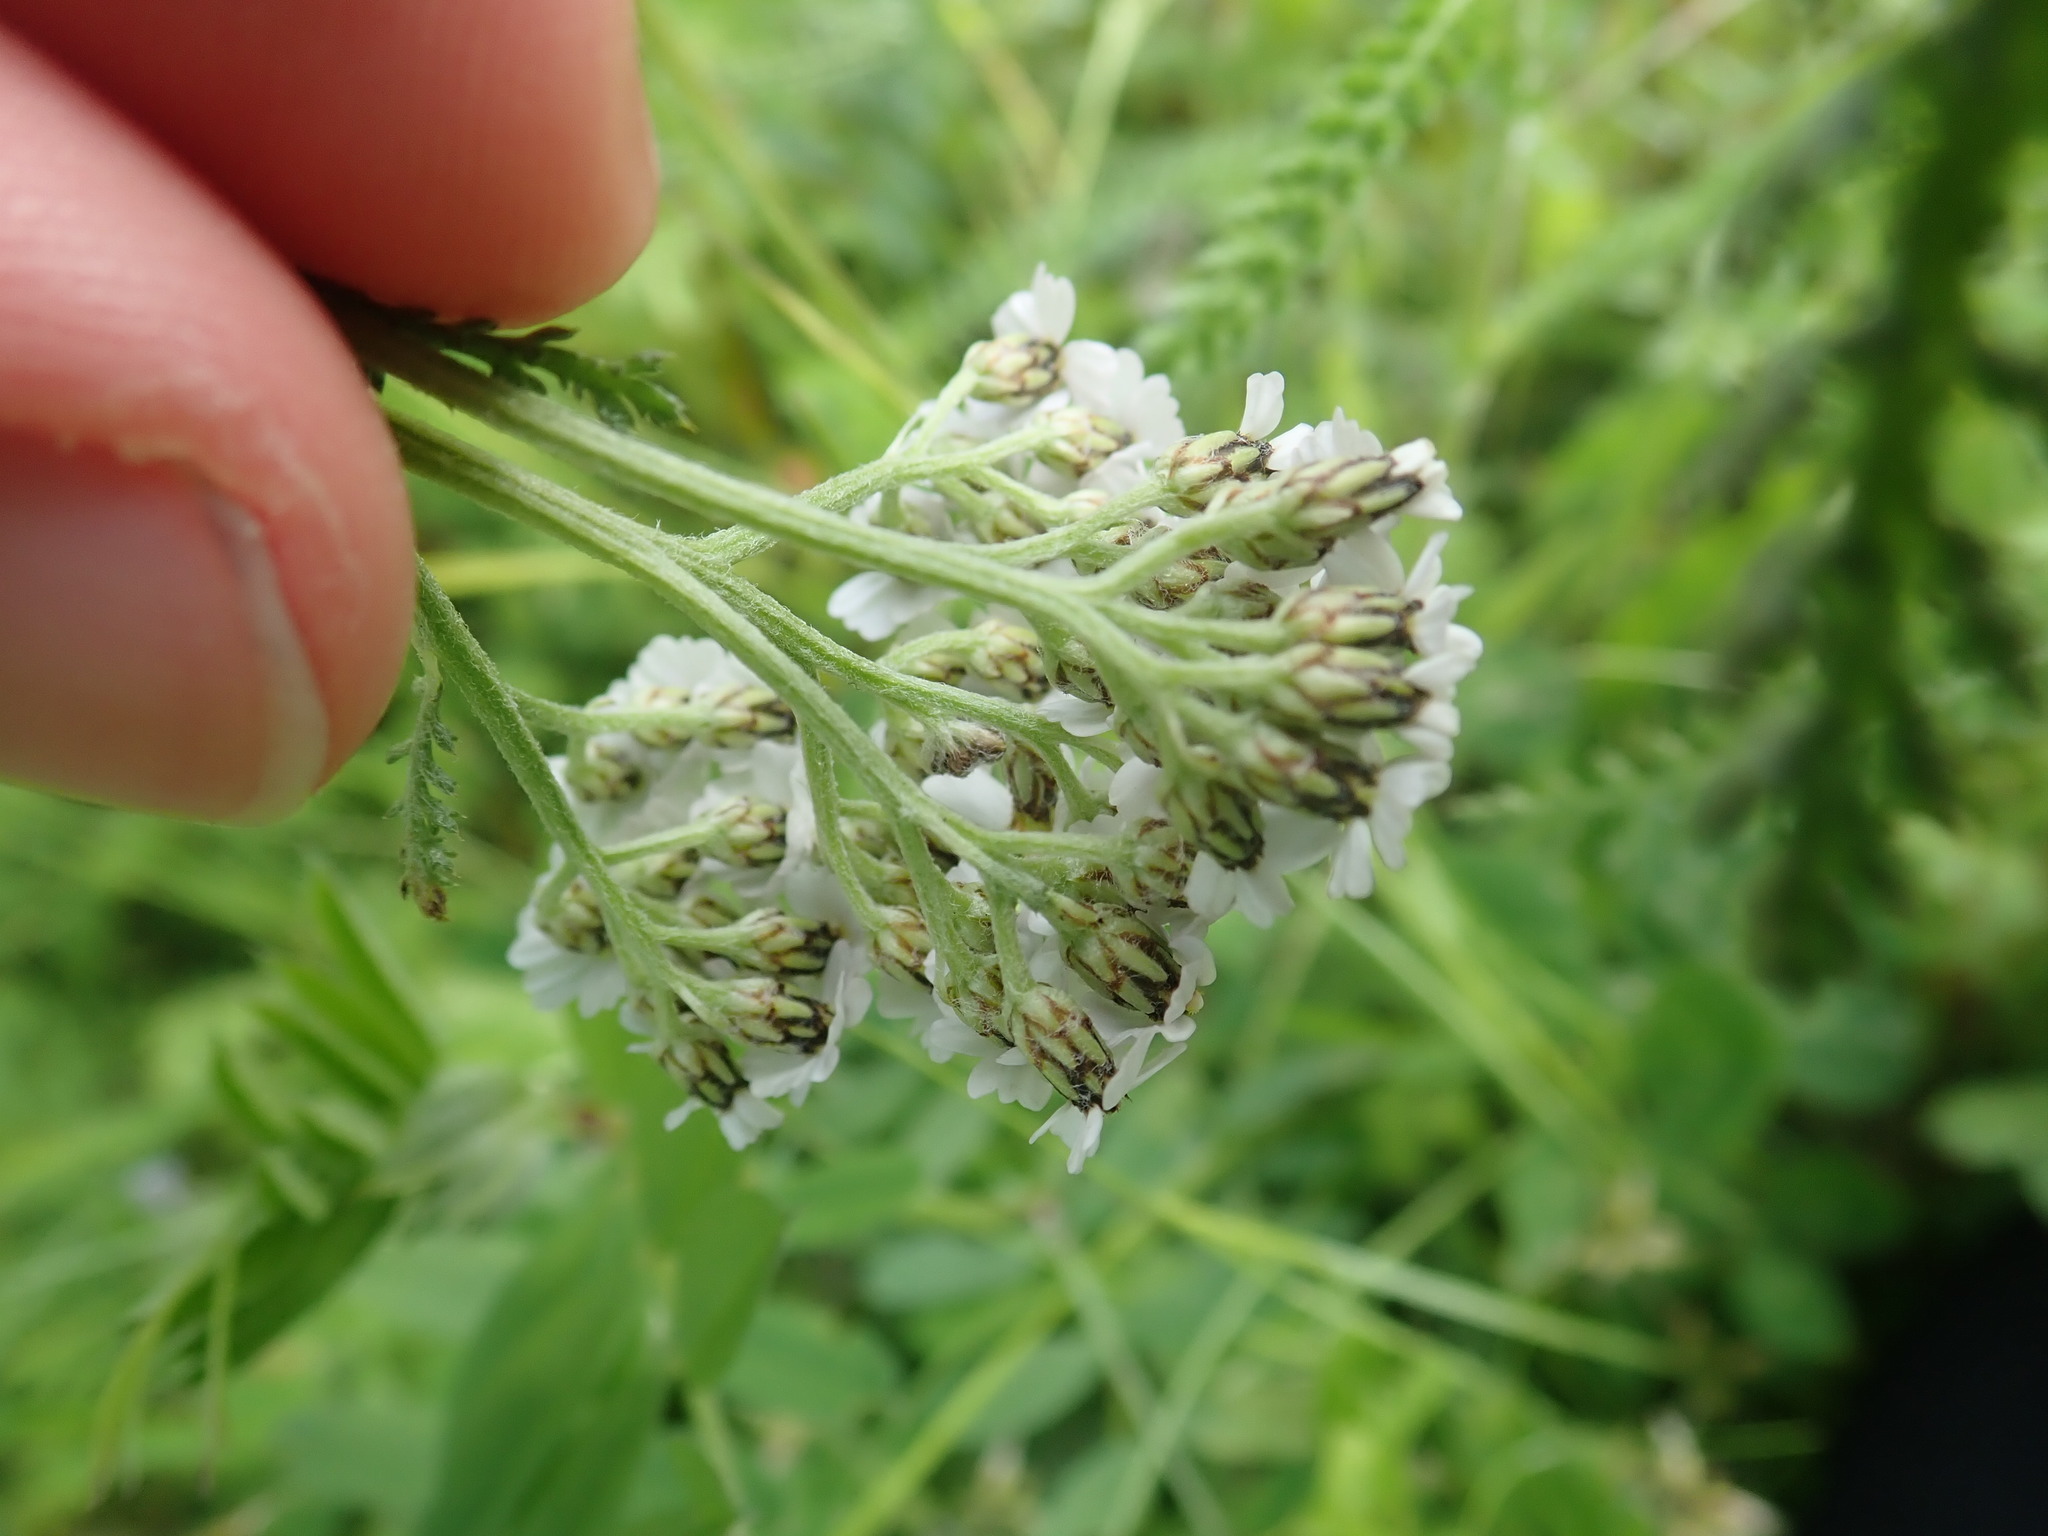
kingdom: Plantae
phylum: Tracheophyta
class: Magnoliopsida
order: Asterales
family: Asteraceae
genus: Achillea
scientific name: Achillea millefolium
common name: Yarrow
